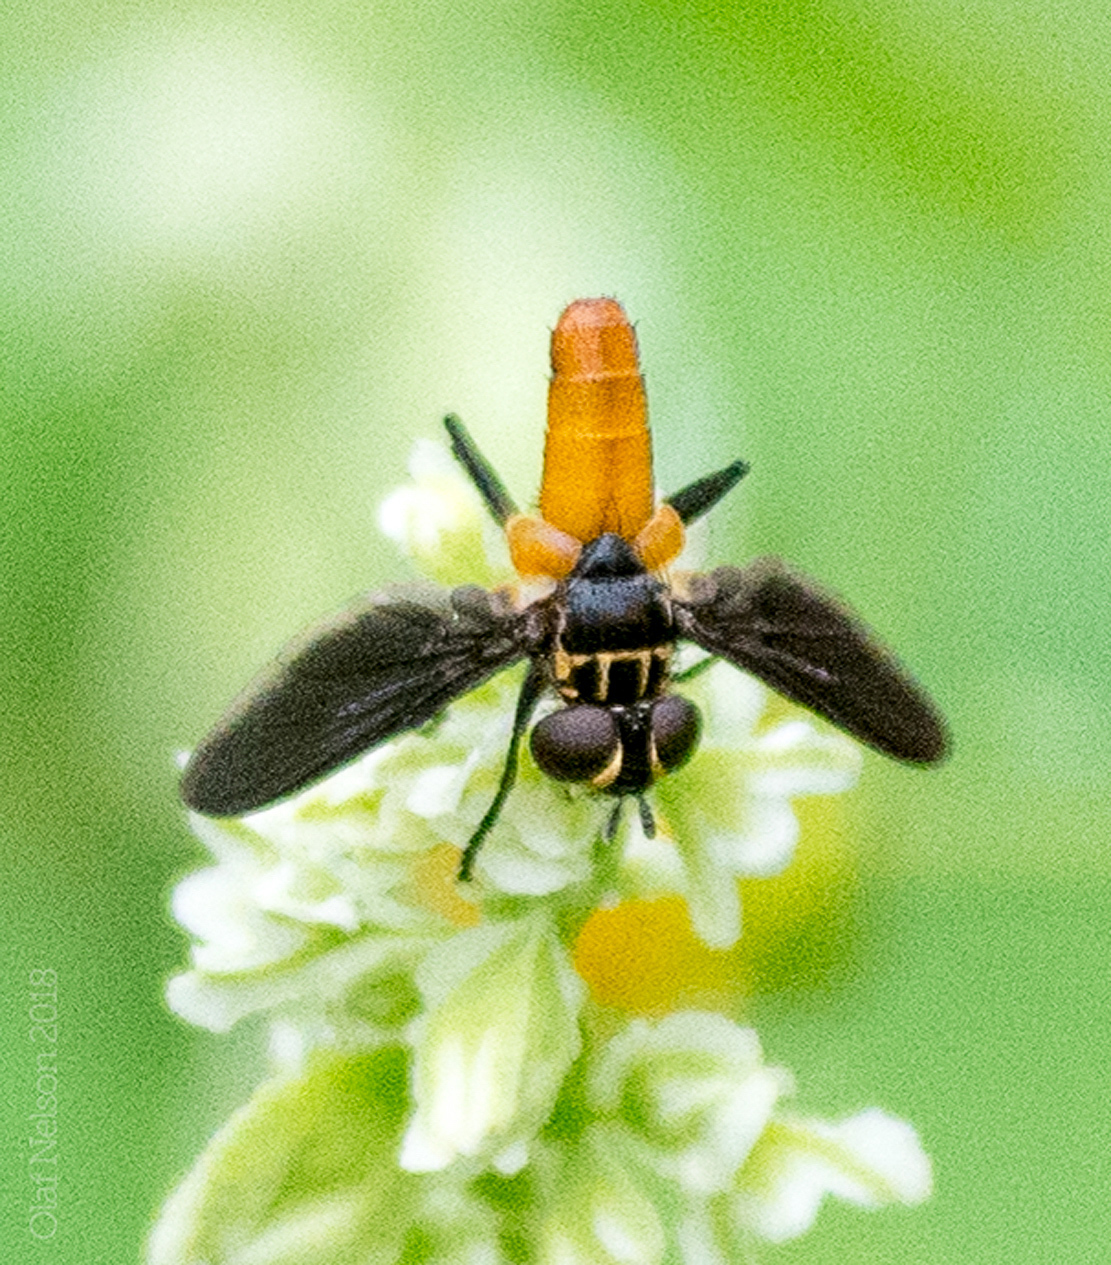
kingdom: Animalia
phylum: Arthropoda
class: Insecta
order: Diptera
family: Tachinidae
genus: Trichopoda
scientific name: Trichopoda pennipes
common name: Tachinid fly
